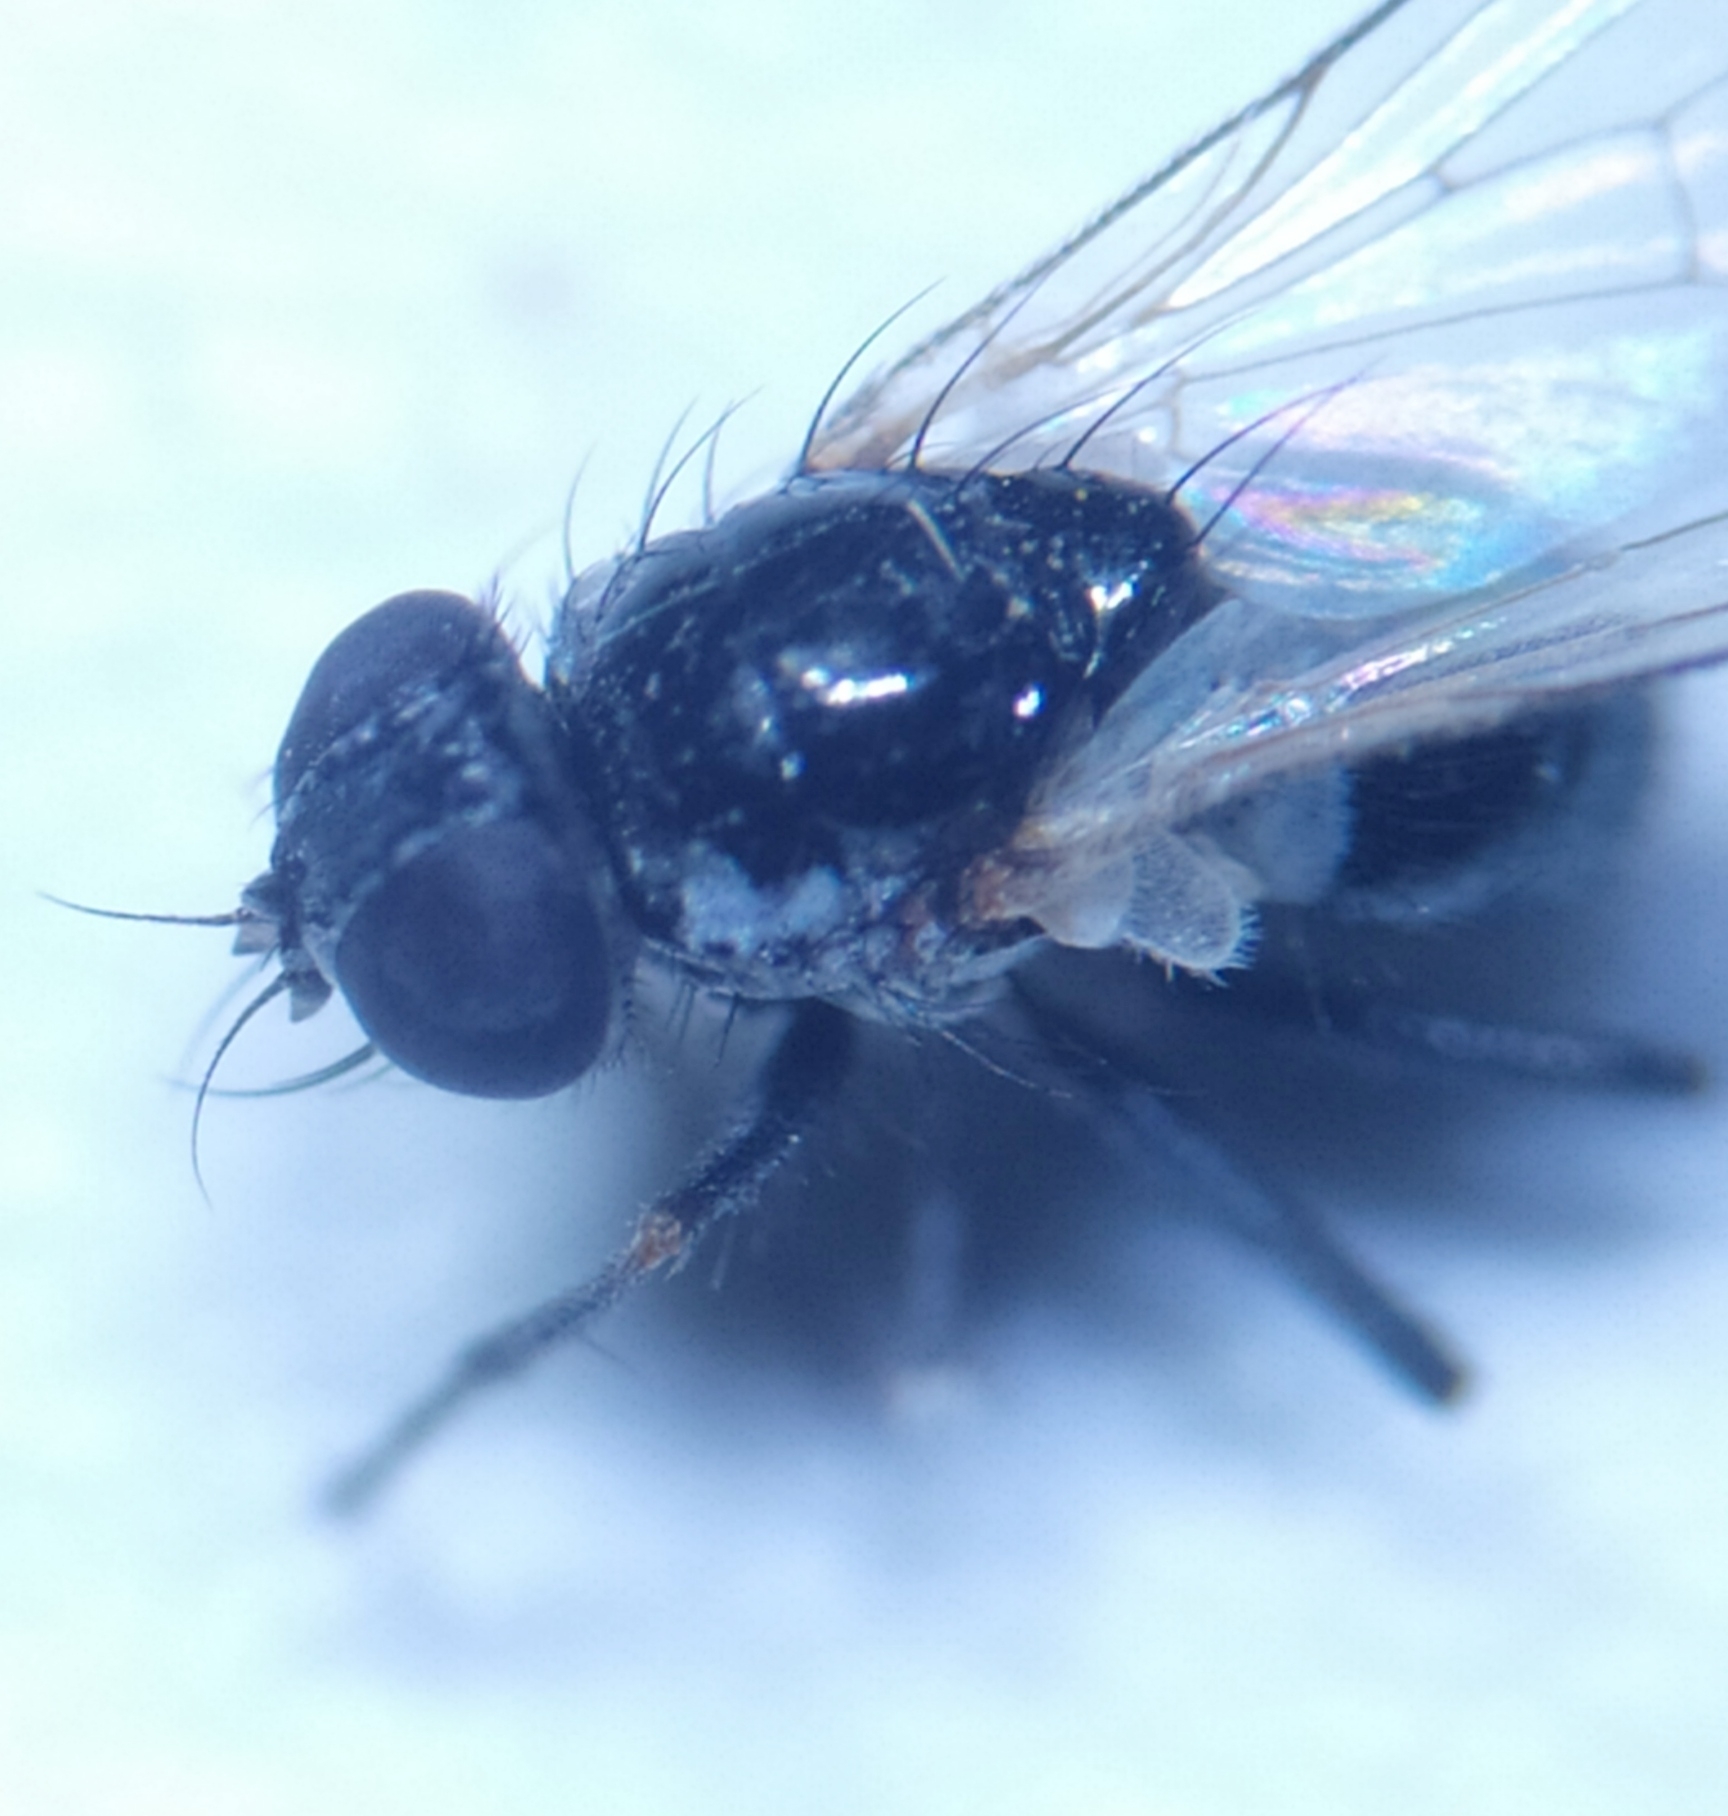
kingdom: Animalia
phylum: Arthropoda
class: Insecta
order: Diptera
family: Muscidae
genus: Coenosia
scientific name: Coenosia atra
